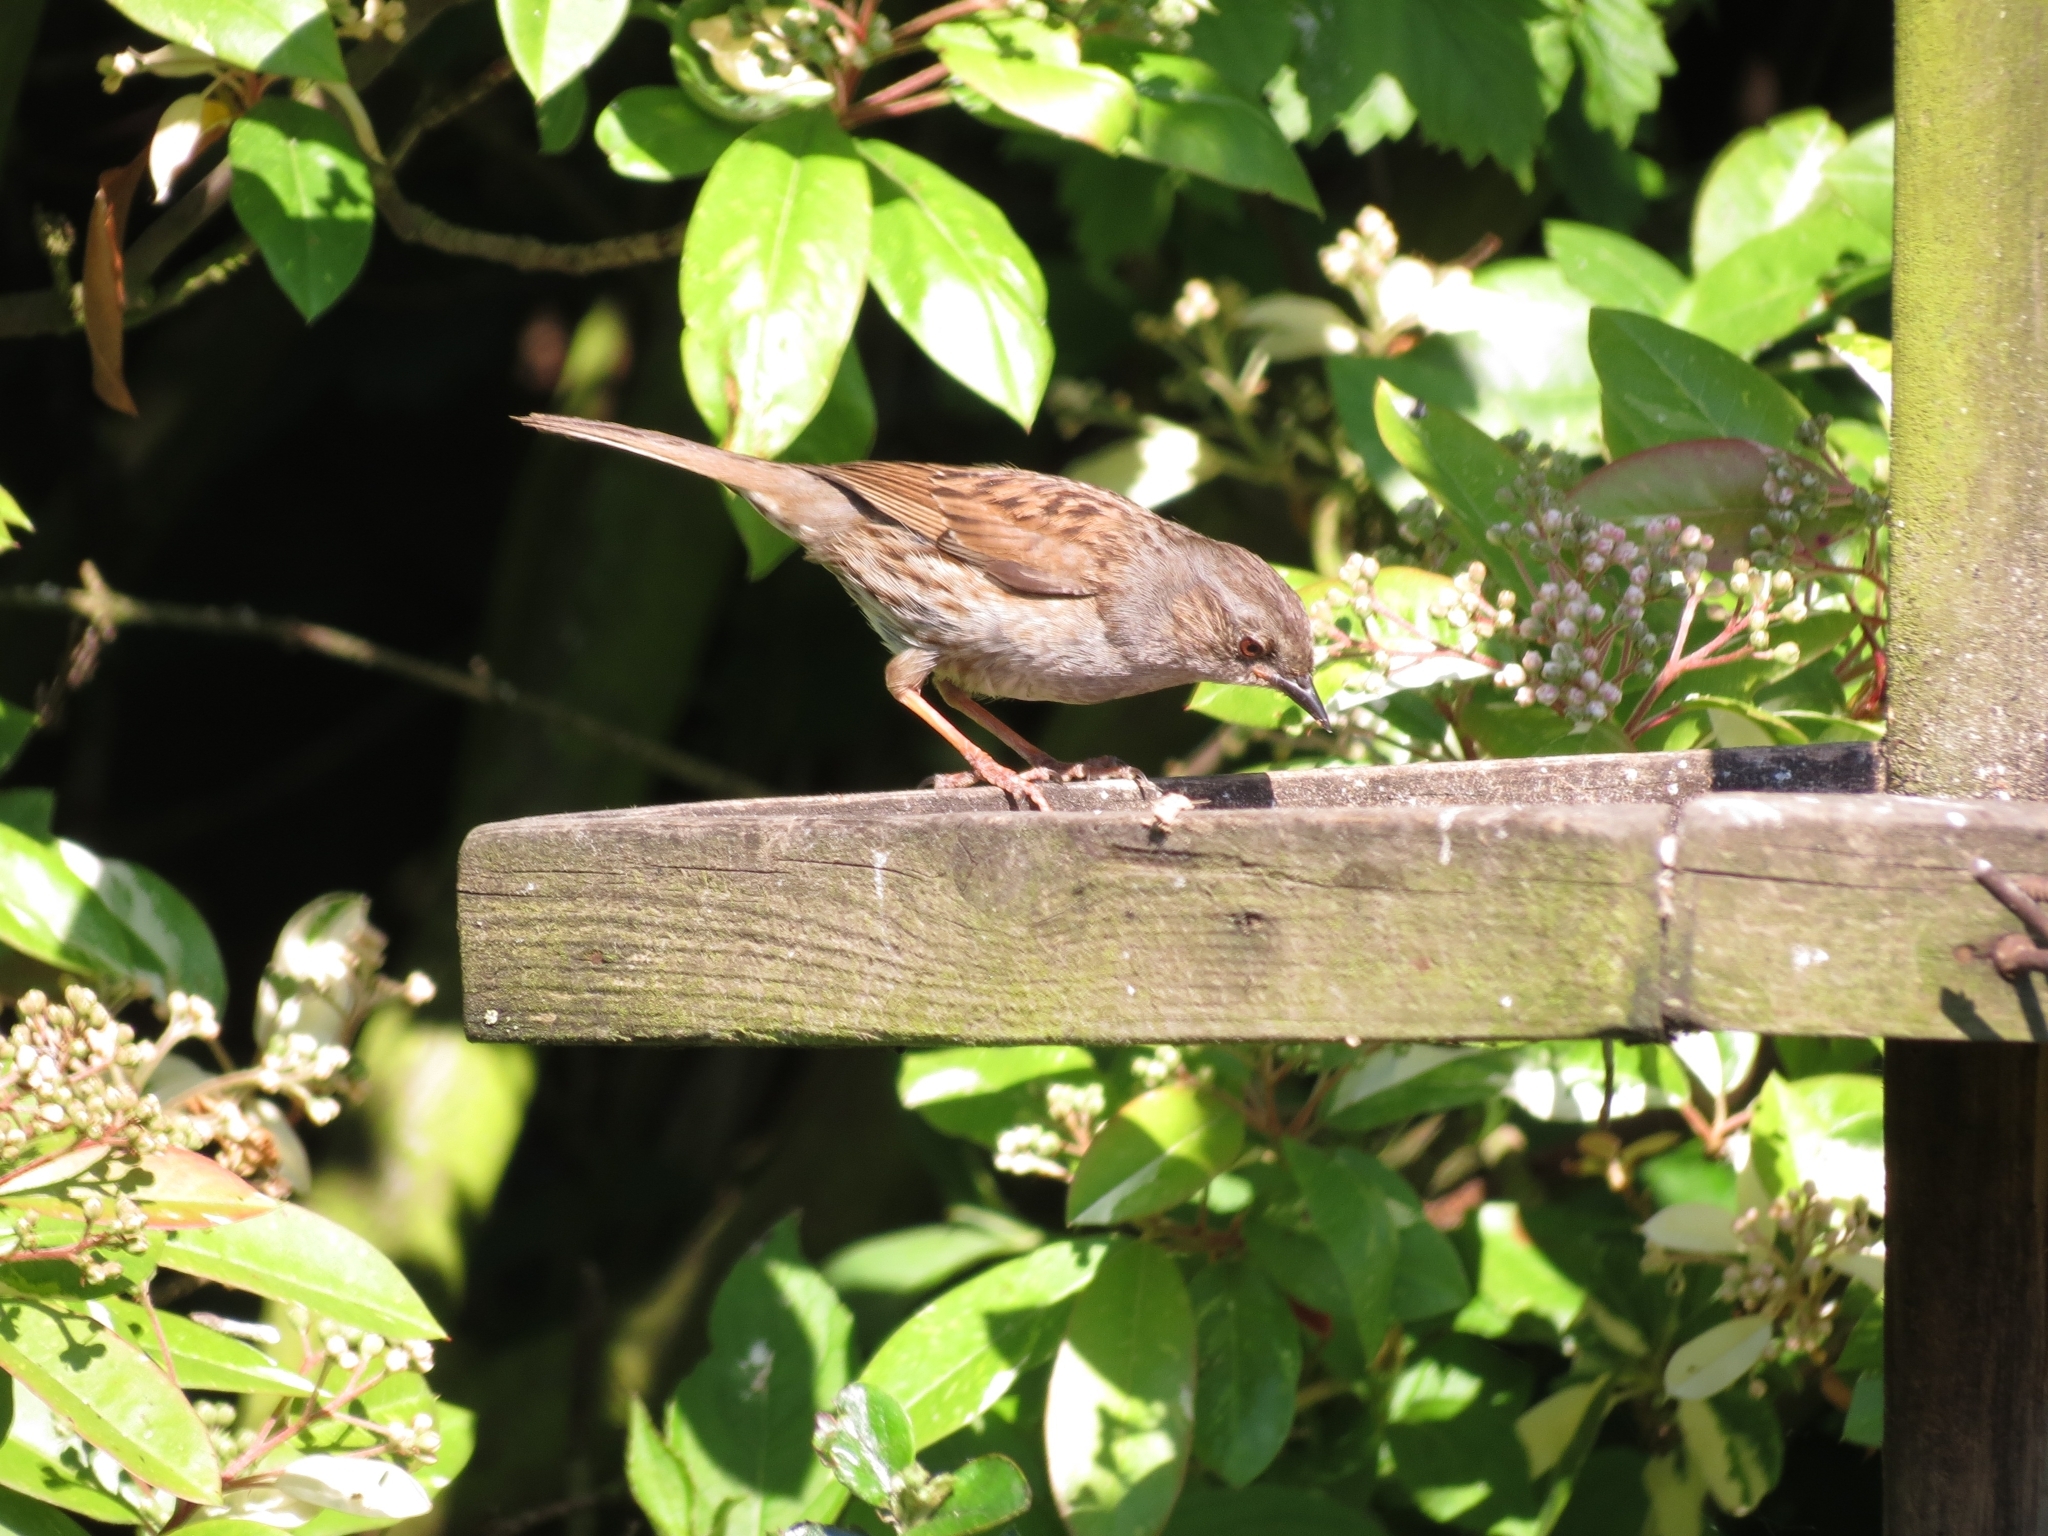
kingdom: Animalia
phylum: Chordata
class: Aves
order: Passeriformes
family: Prunellidae
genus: Prunella
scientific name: Prunella modularis
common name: Dunnock
